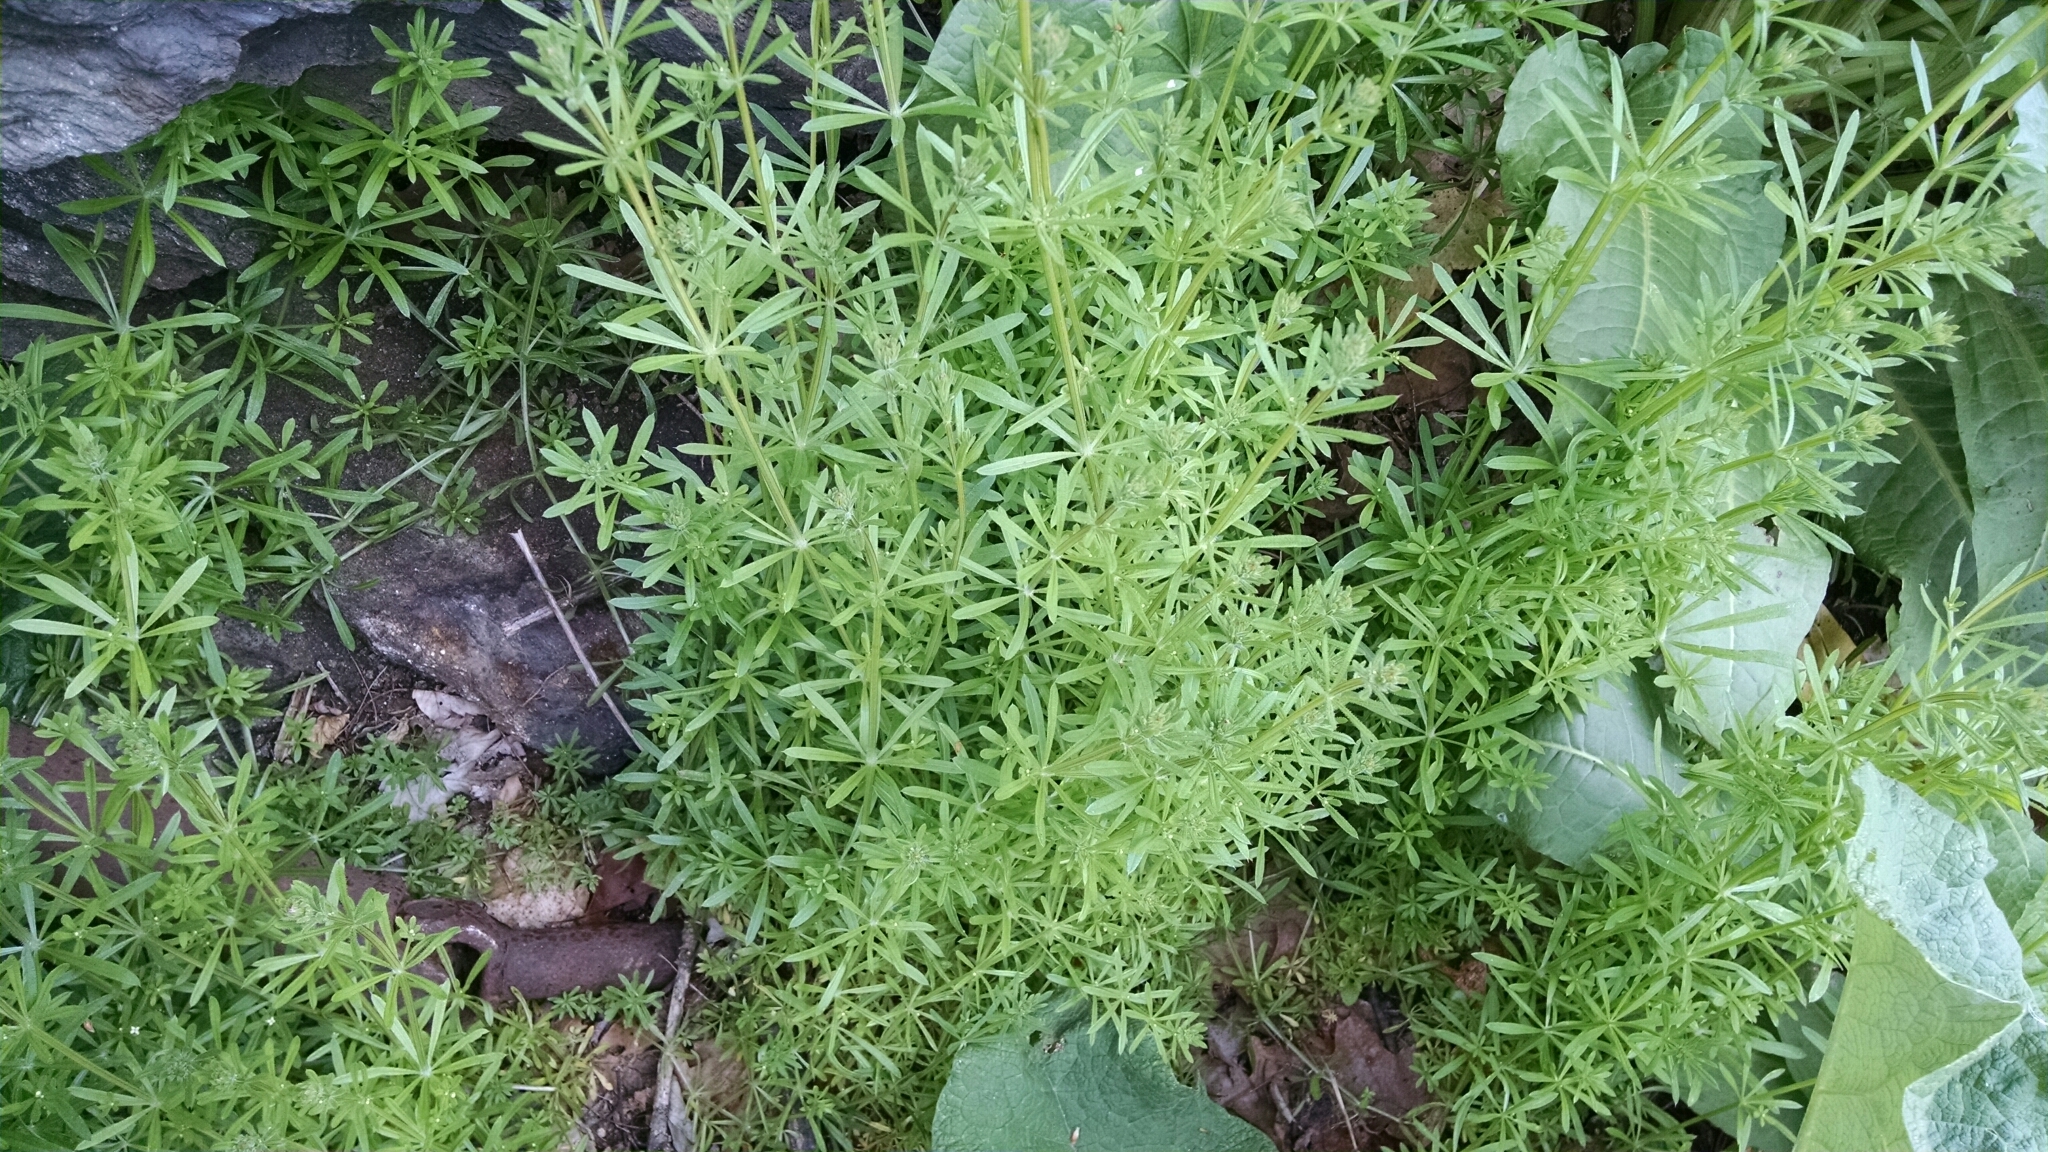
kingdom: Plantae
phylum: Tracheophyta
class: Magnoliopsida
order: Gentianales
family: Rubiaceae
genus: Galium
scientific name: Galium aparine
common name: Cleavers
